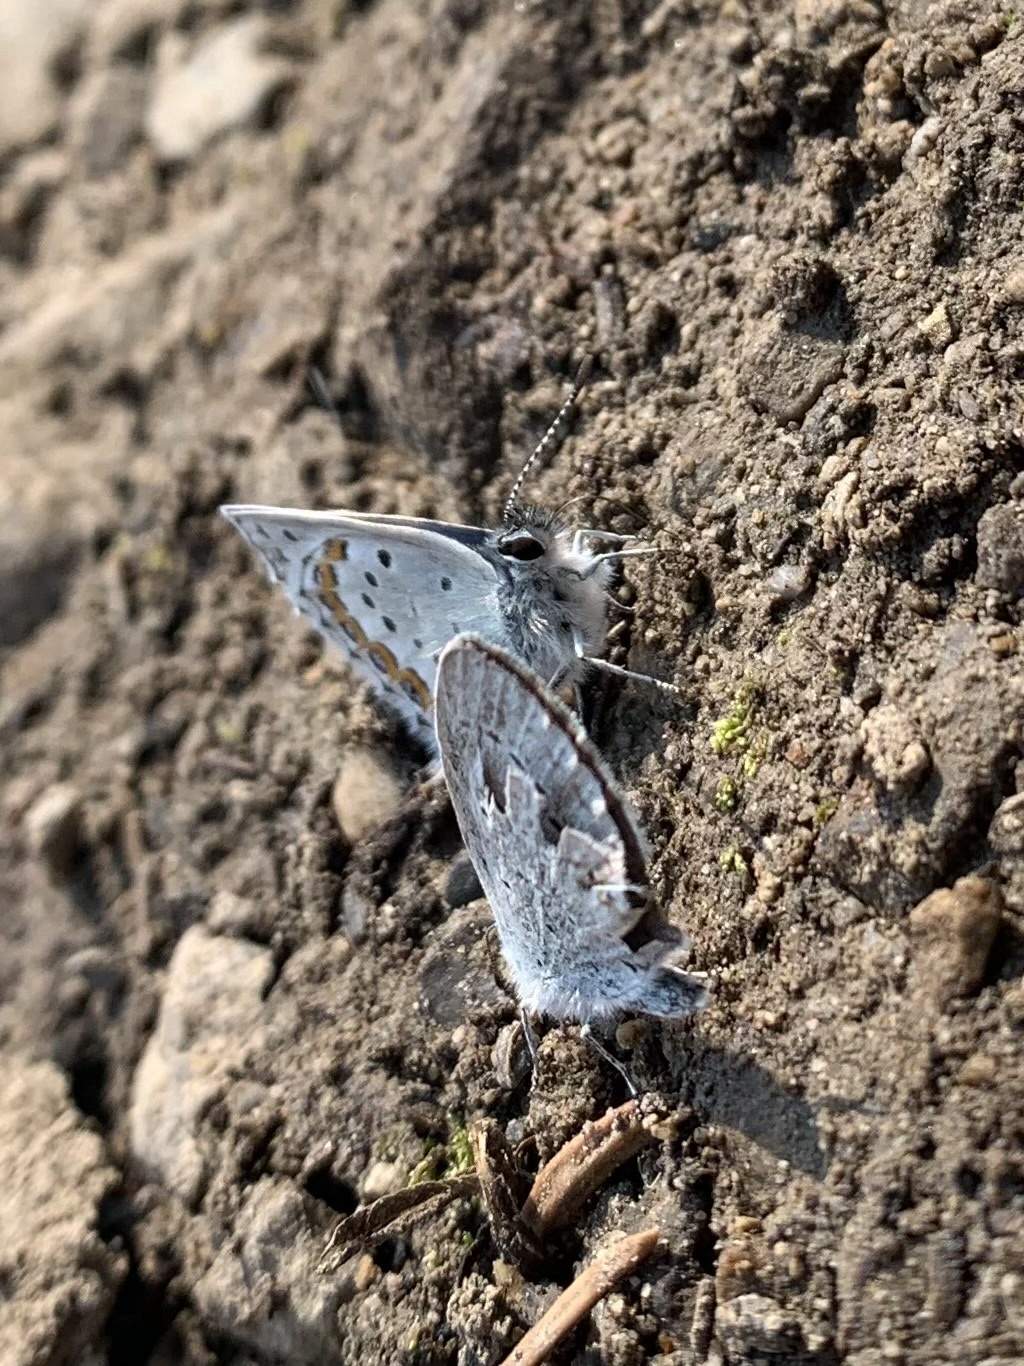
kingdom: Animalia
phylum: Arthropoda
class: Insecta
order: Lepidoptera
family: Lycaenidae
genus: Lycaeides
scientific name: Lycaeides idas
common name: Northern blue
